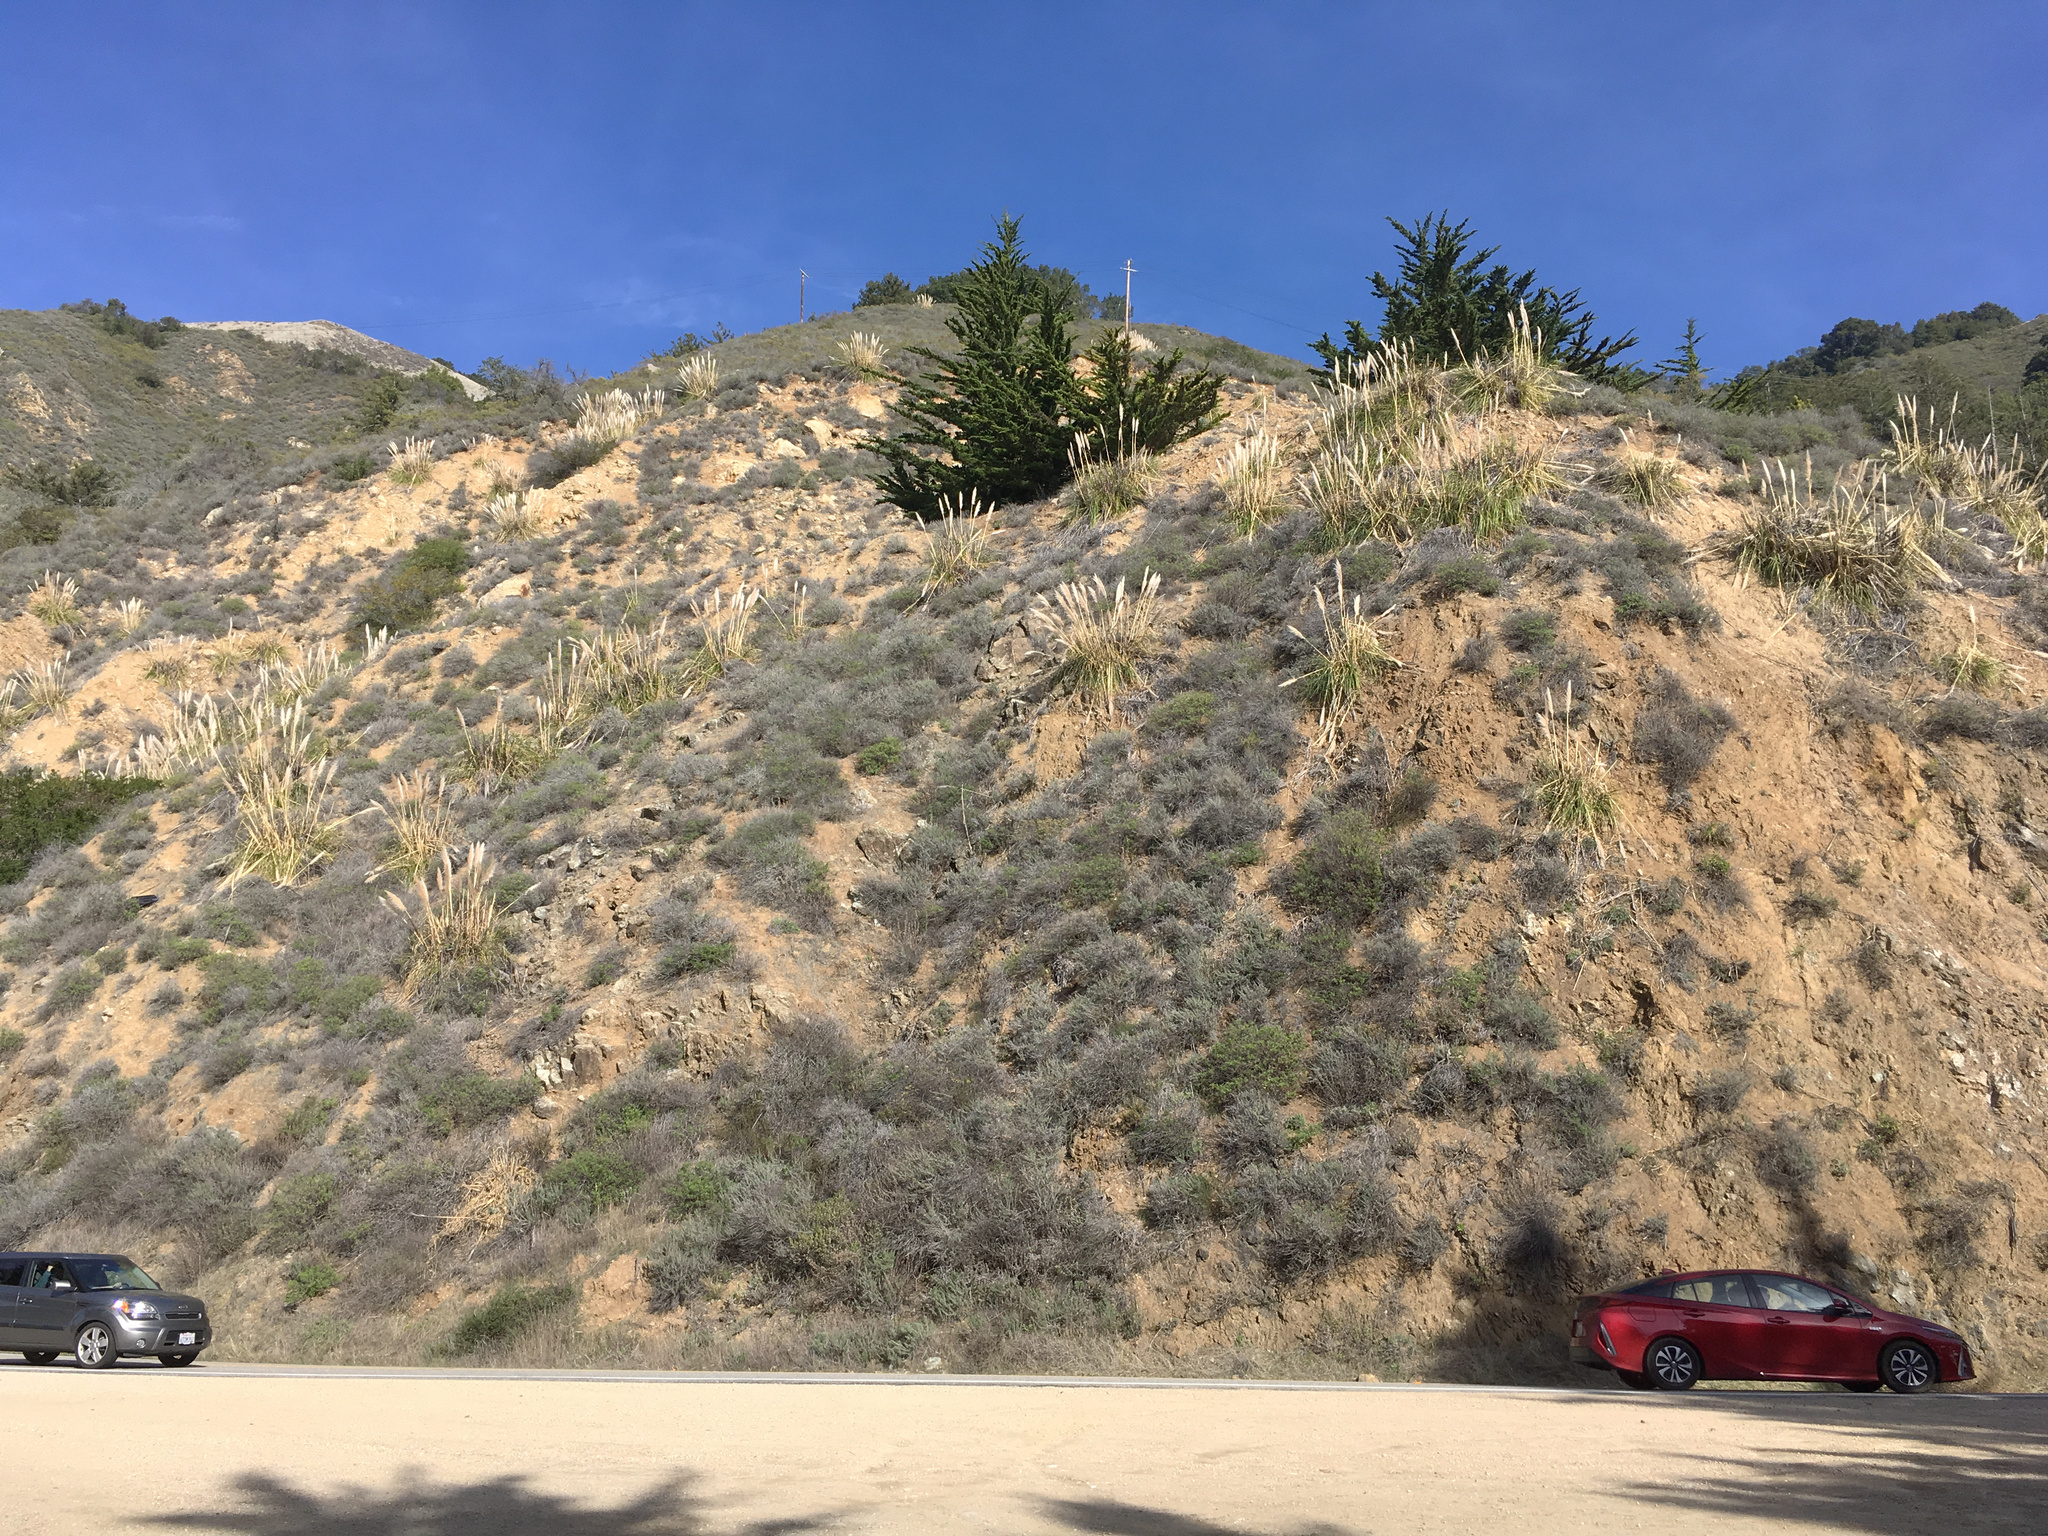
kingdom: Plantae
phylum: Tracheophyta
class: Liliopsida
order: Poales
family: Poaceae
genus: Cortaderia
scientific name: Cortaderia selloana
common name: Uruguayan pampas grass
